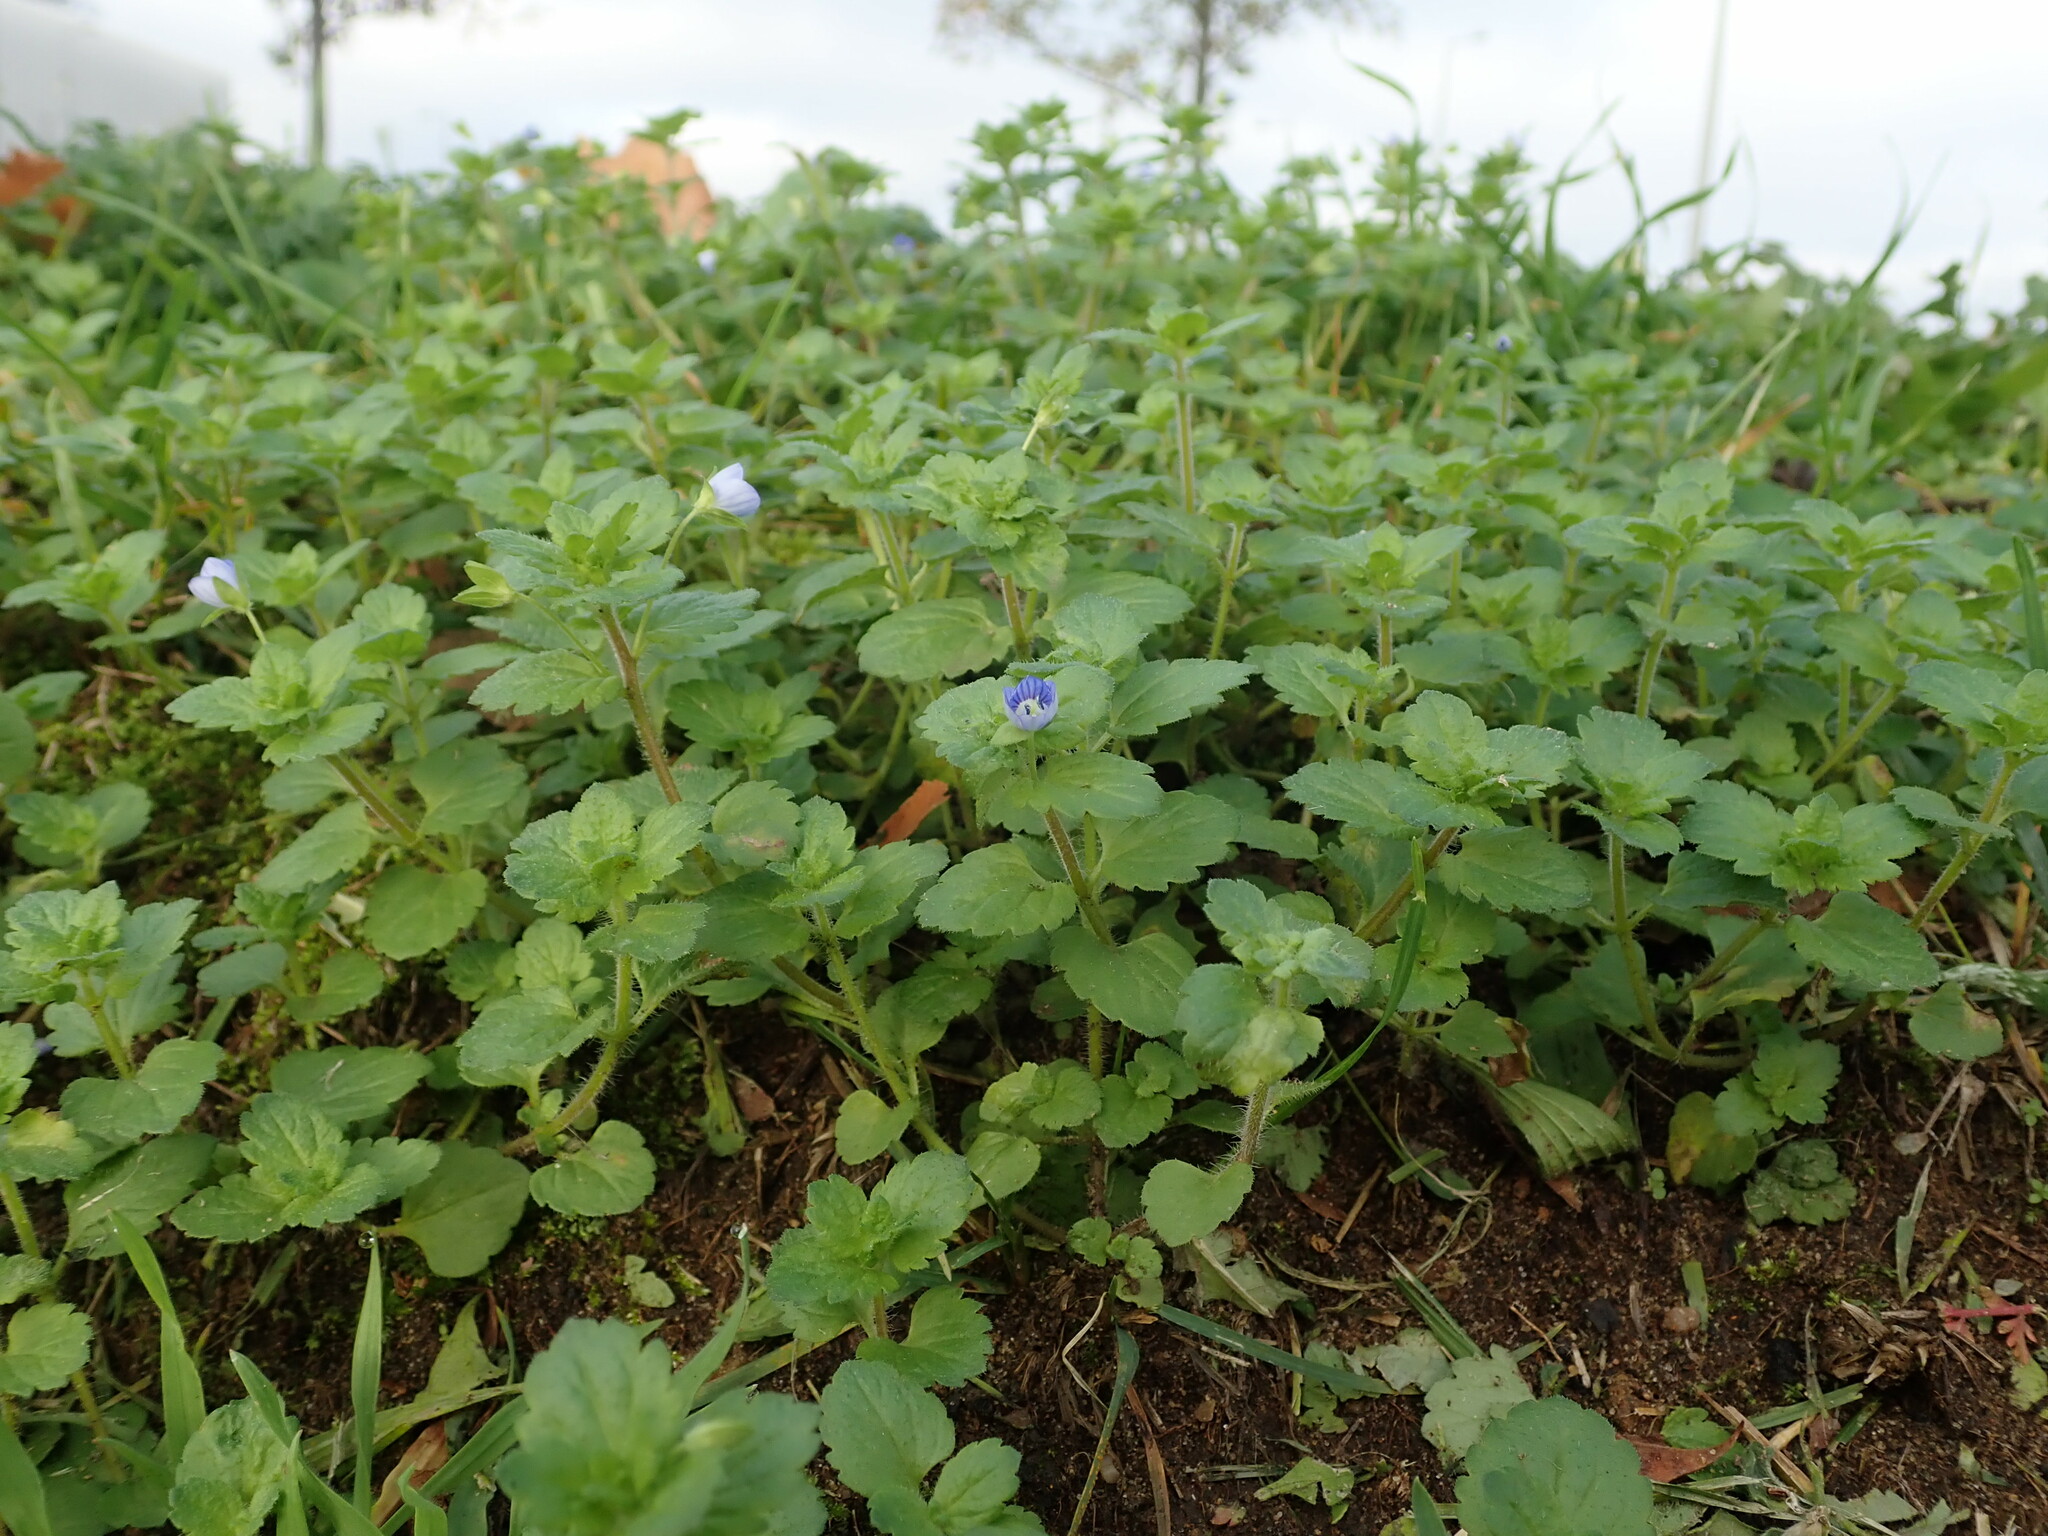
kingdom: Plantae
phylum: Tracheophyta
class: Magnoliopsida
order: Lamiales
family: Plantaginaceae
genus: Veronica
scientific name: Veronica persica
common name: Common field-speedwell
